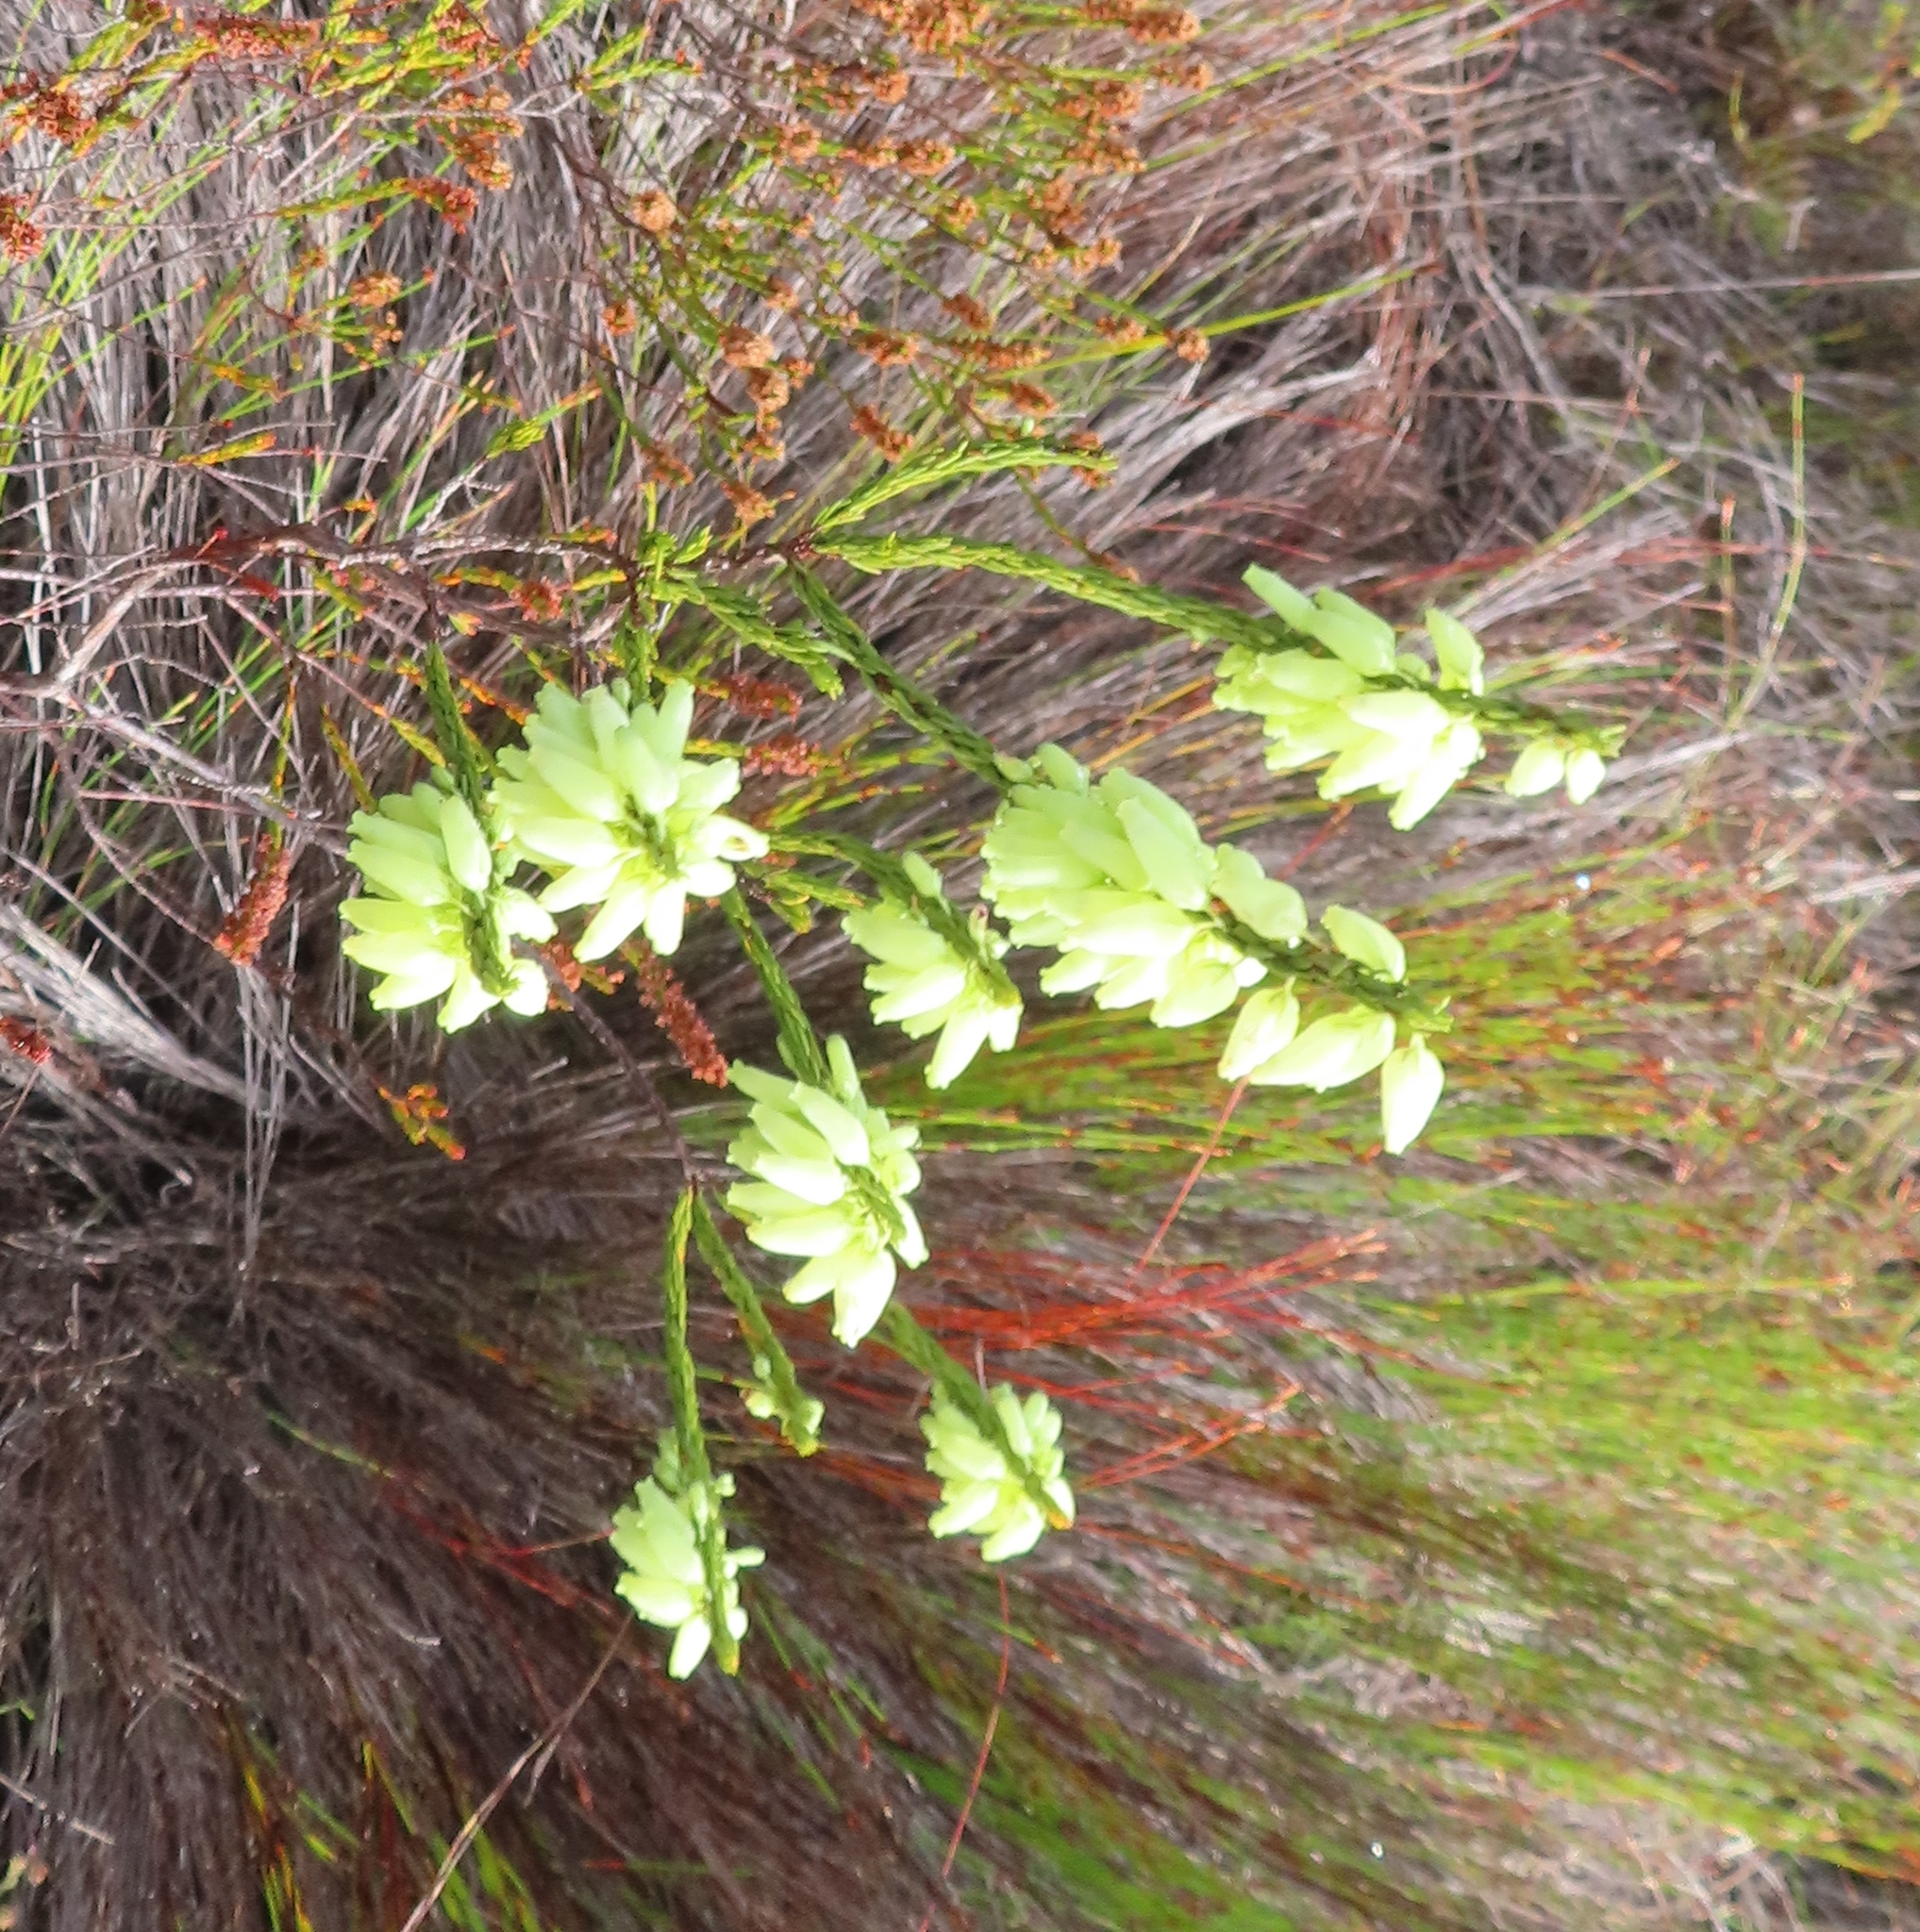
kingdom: Plantae
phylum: Tracheophyta
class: Magnoliopsida
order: Ericales
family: Ericaceae
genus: Erica
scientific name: Erica penduliflora
